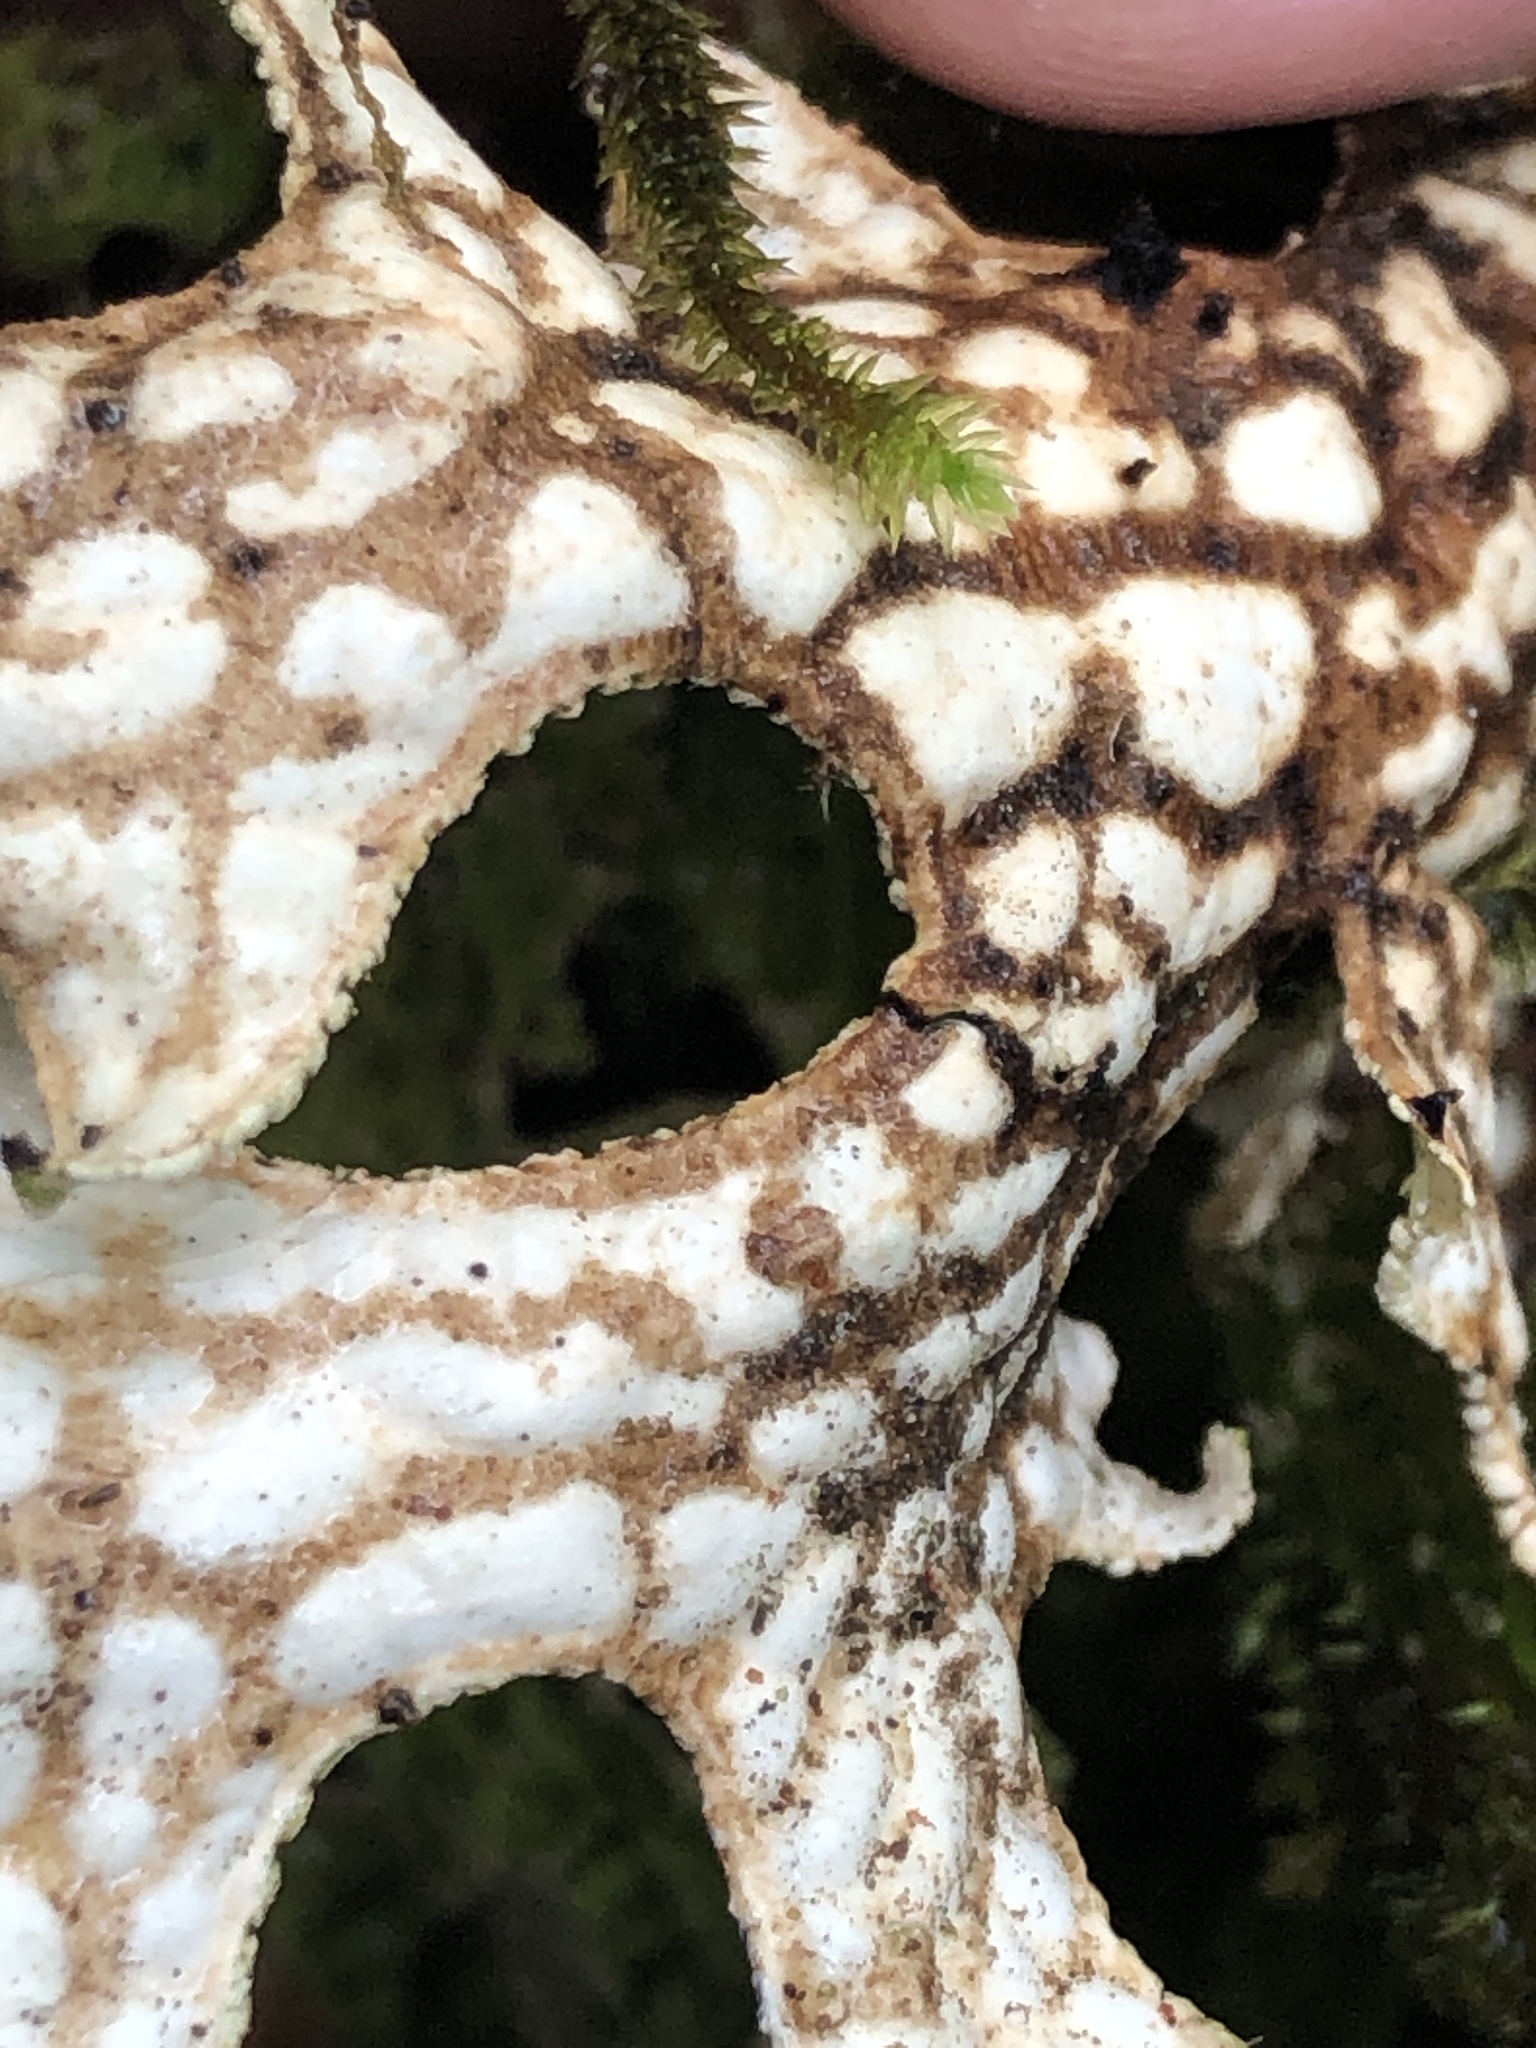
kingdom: Fungi
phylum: Ascomycota
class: Lecanoromycetes
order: Peltigerales
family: Lobariaceae
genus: Lobaria
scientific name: Lobaria pulmonaria
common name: Lungwort
